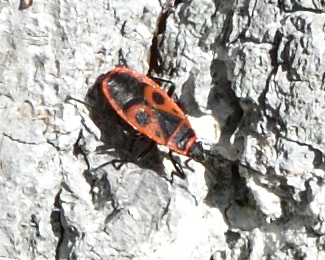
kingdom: Animalia
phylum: Arthropoda
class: Insecta
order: Hemiptera
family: Pyrrhocoridae
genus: Pyrrhocoris
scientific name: Pyrrhocoris apterus
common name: Firebug
